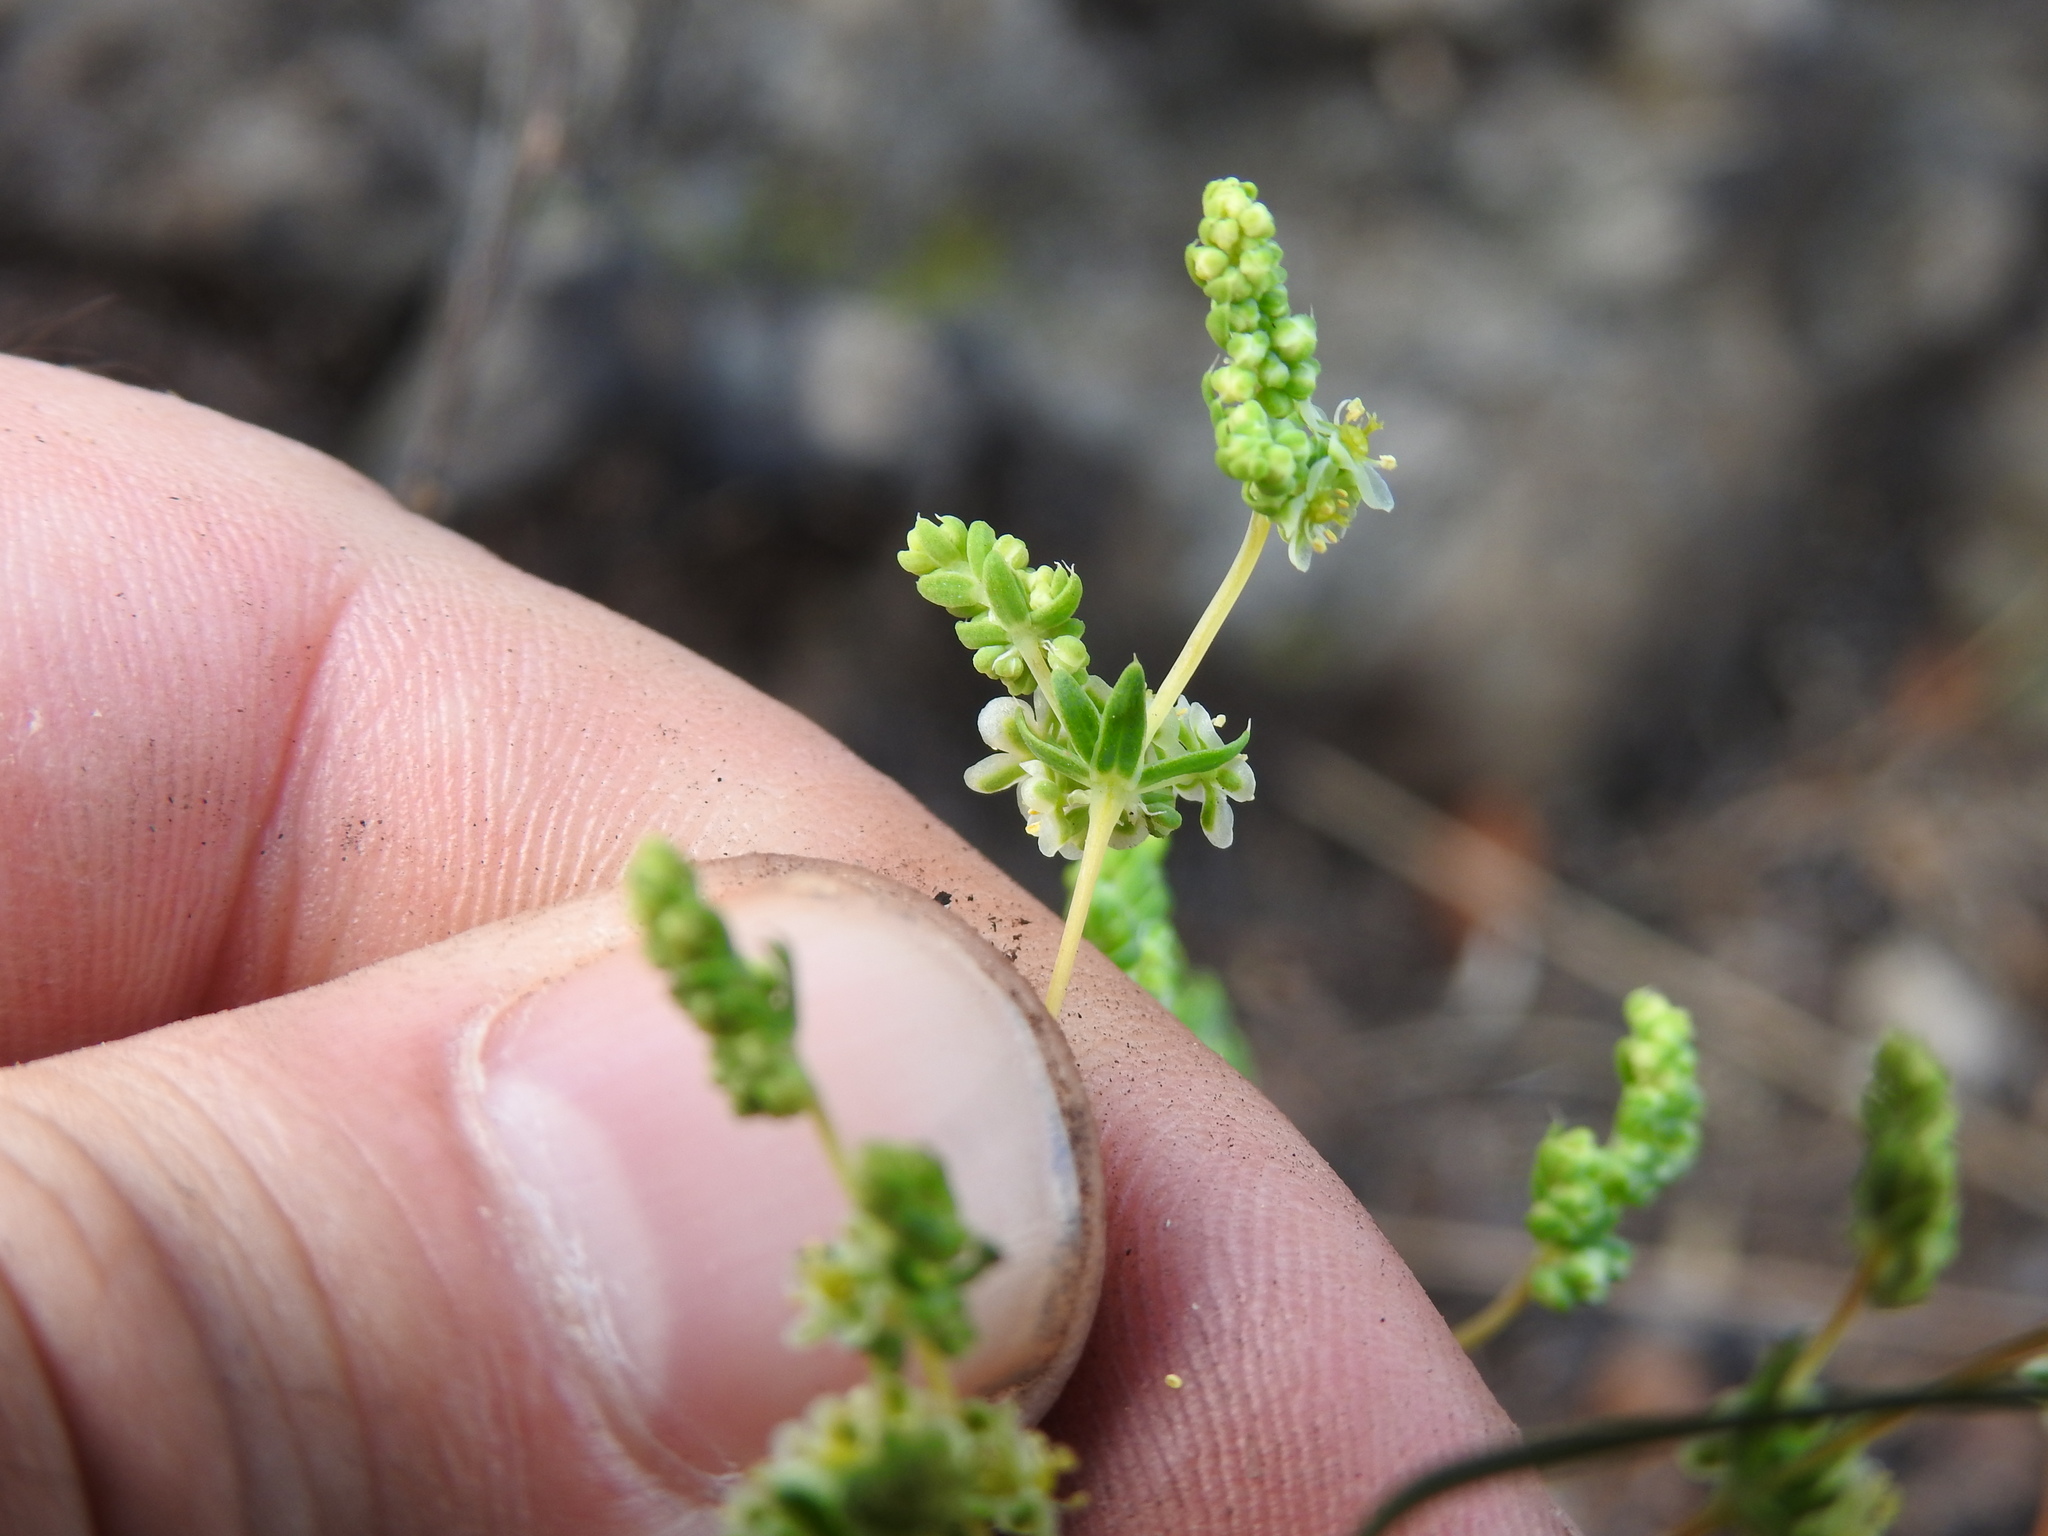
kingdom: Plantae
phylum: Tracheophyta
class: Magnoliopsida
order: Caryophyllales
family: Molluginaceae
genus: Psammotropha
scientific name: Psammotropha myriantha
